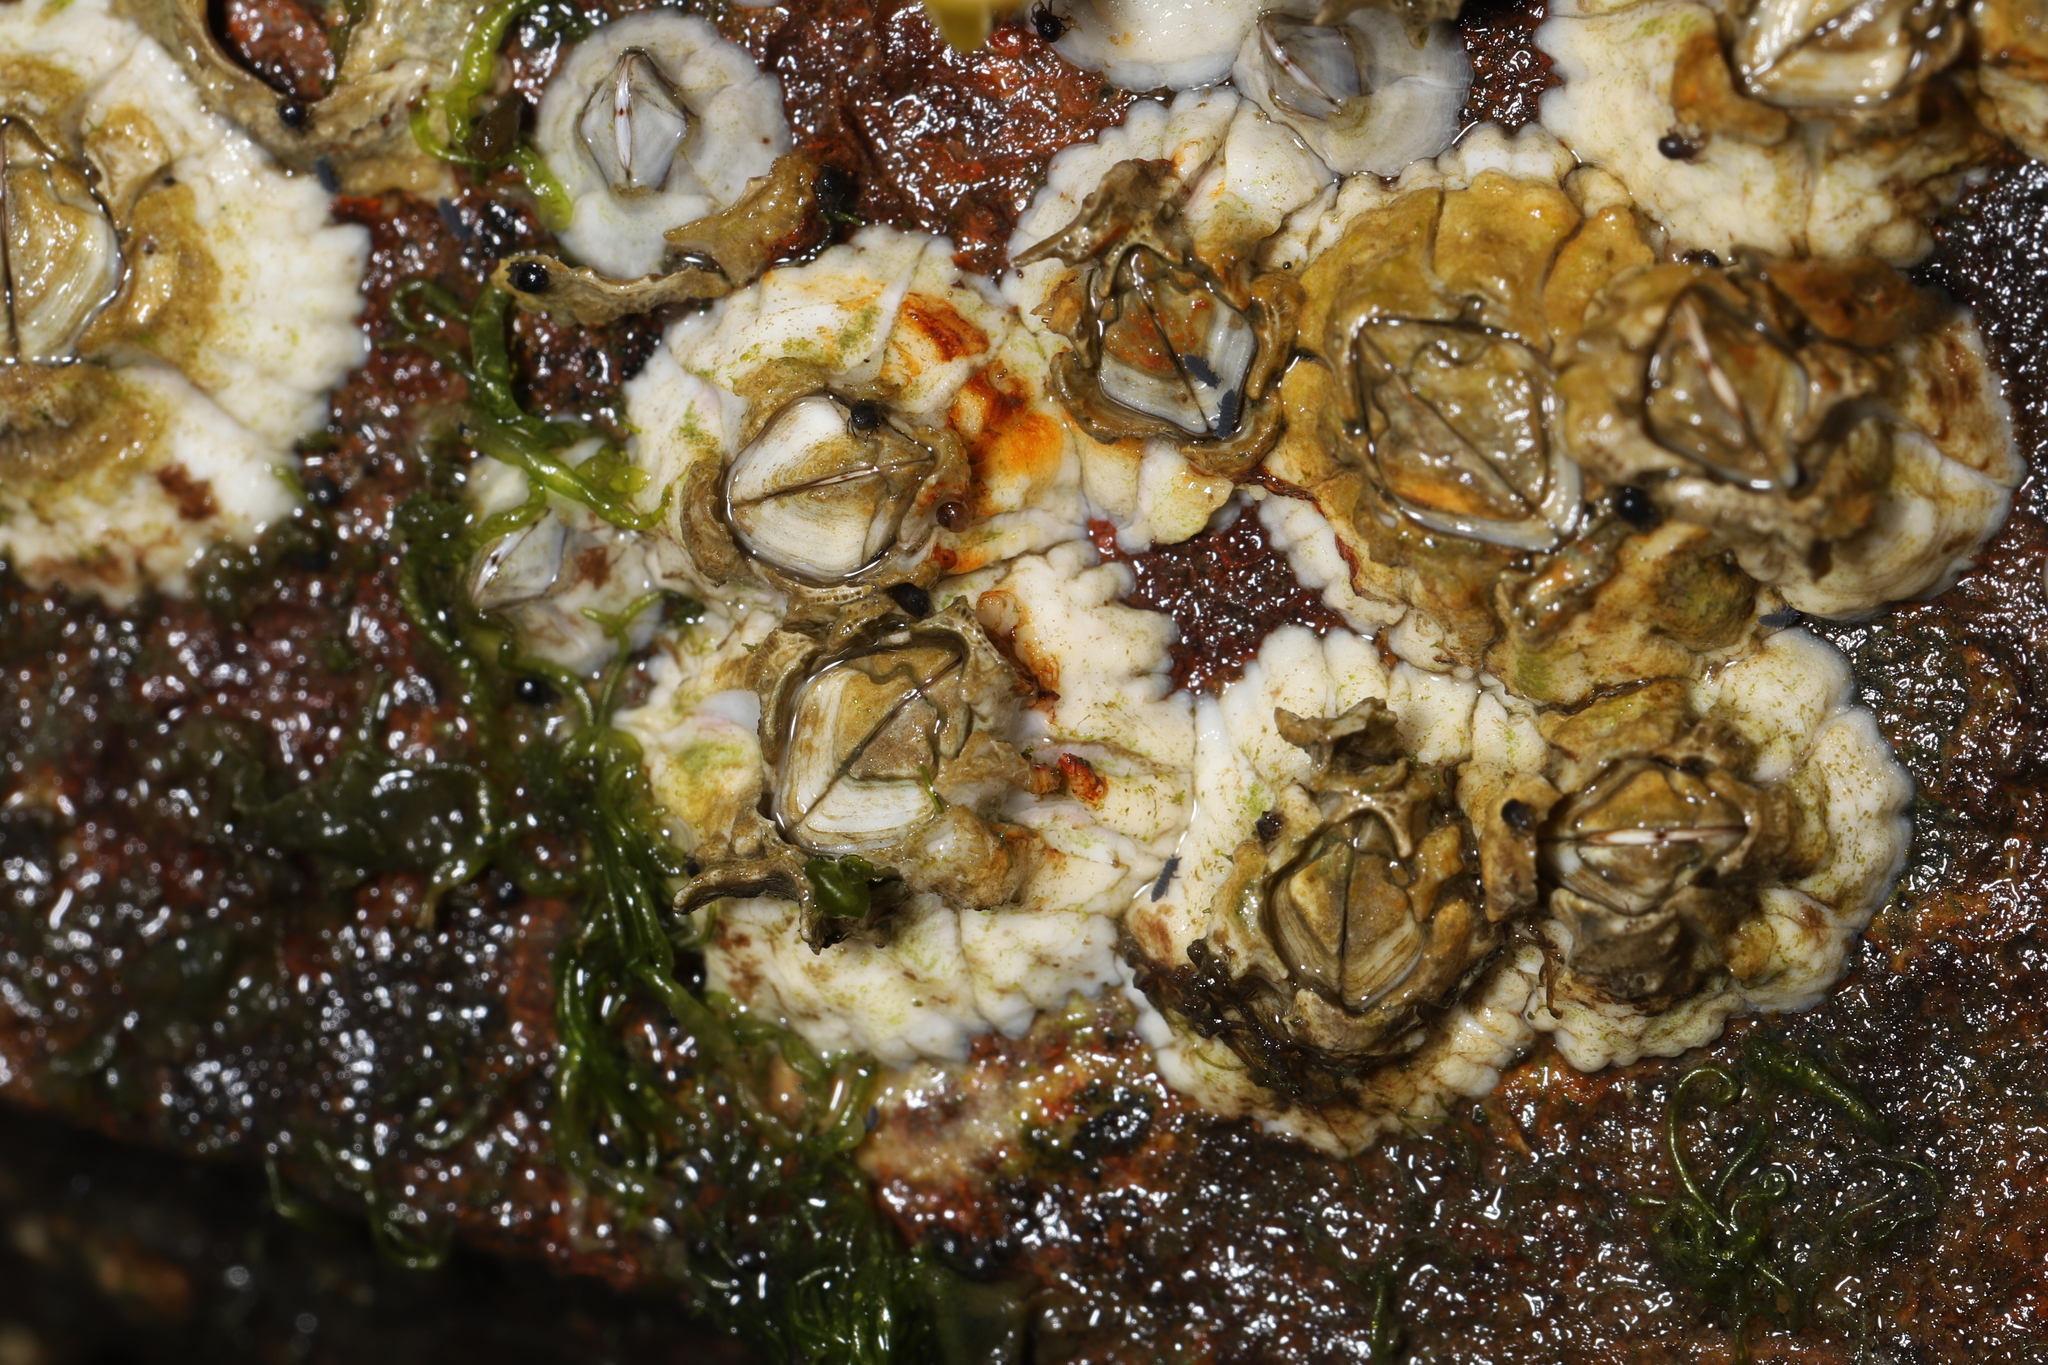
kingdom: Animalia
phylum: Arthropoda
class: Maxillopoda
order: Sessilia
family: Archaeobalanidae
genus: Semibalanus
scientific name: Semibalanus balanoides
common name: Acorn barnacle
